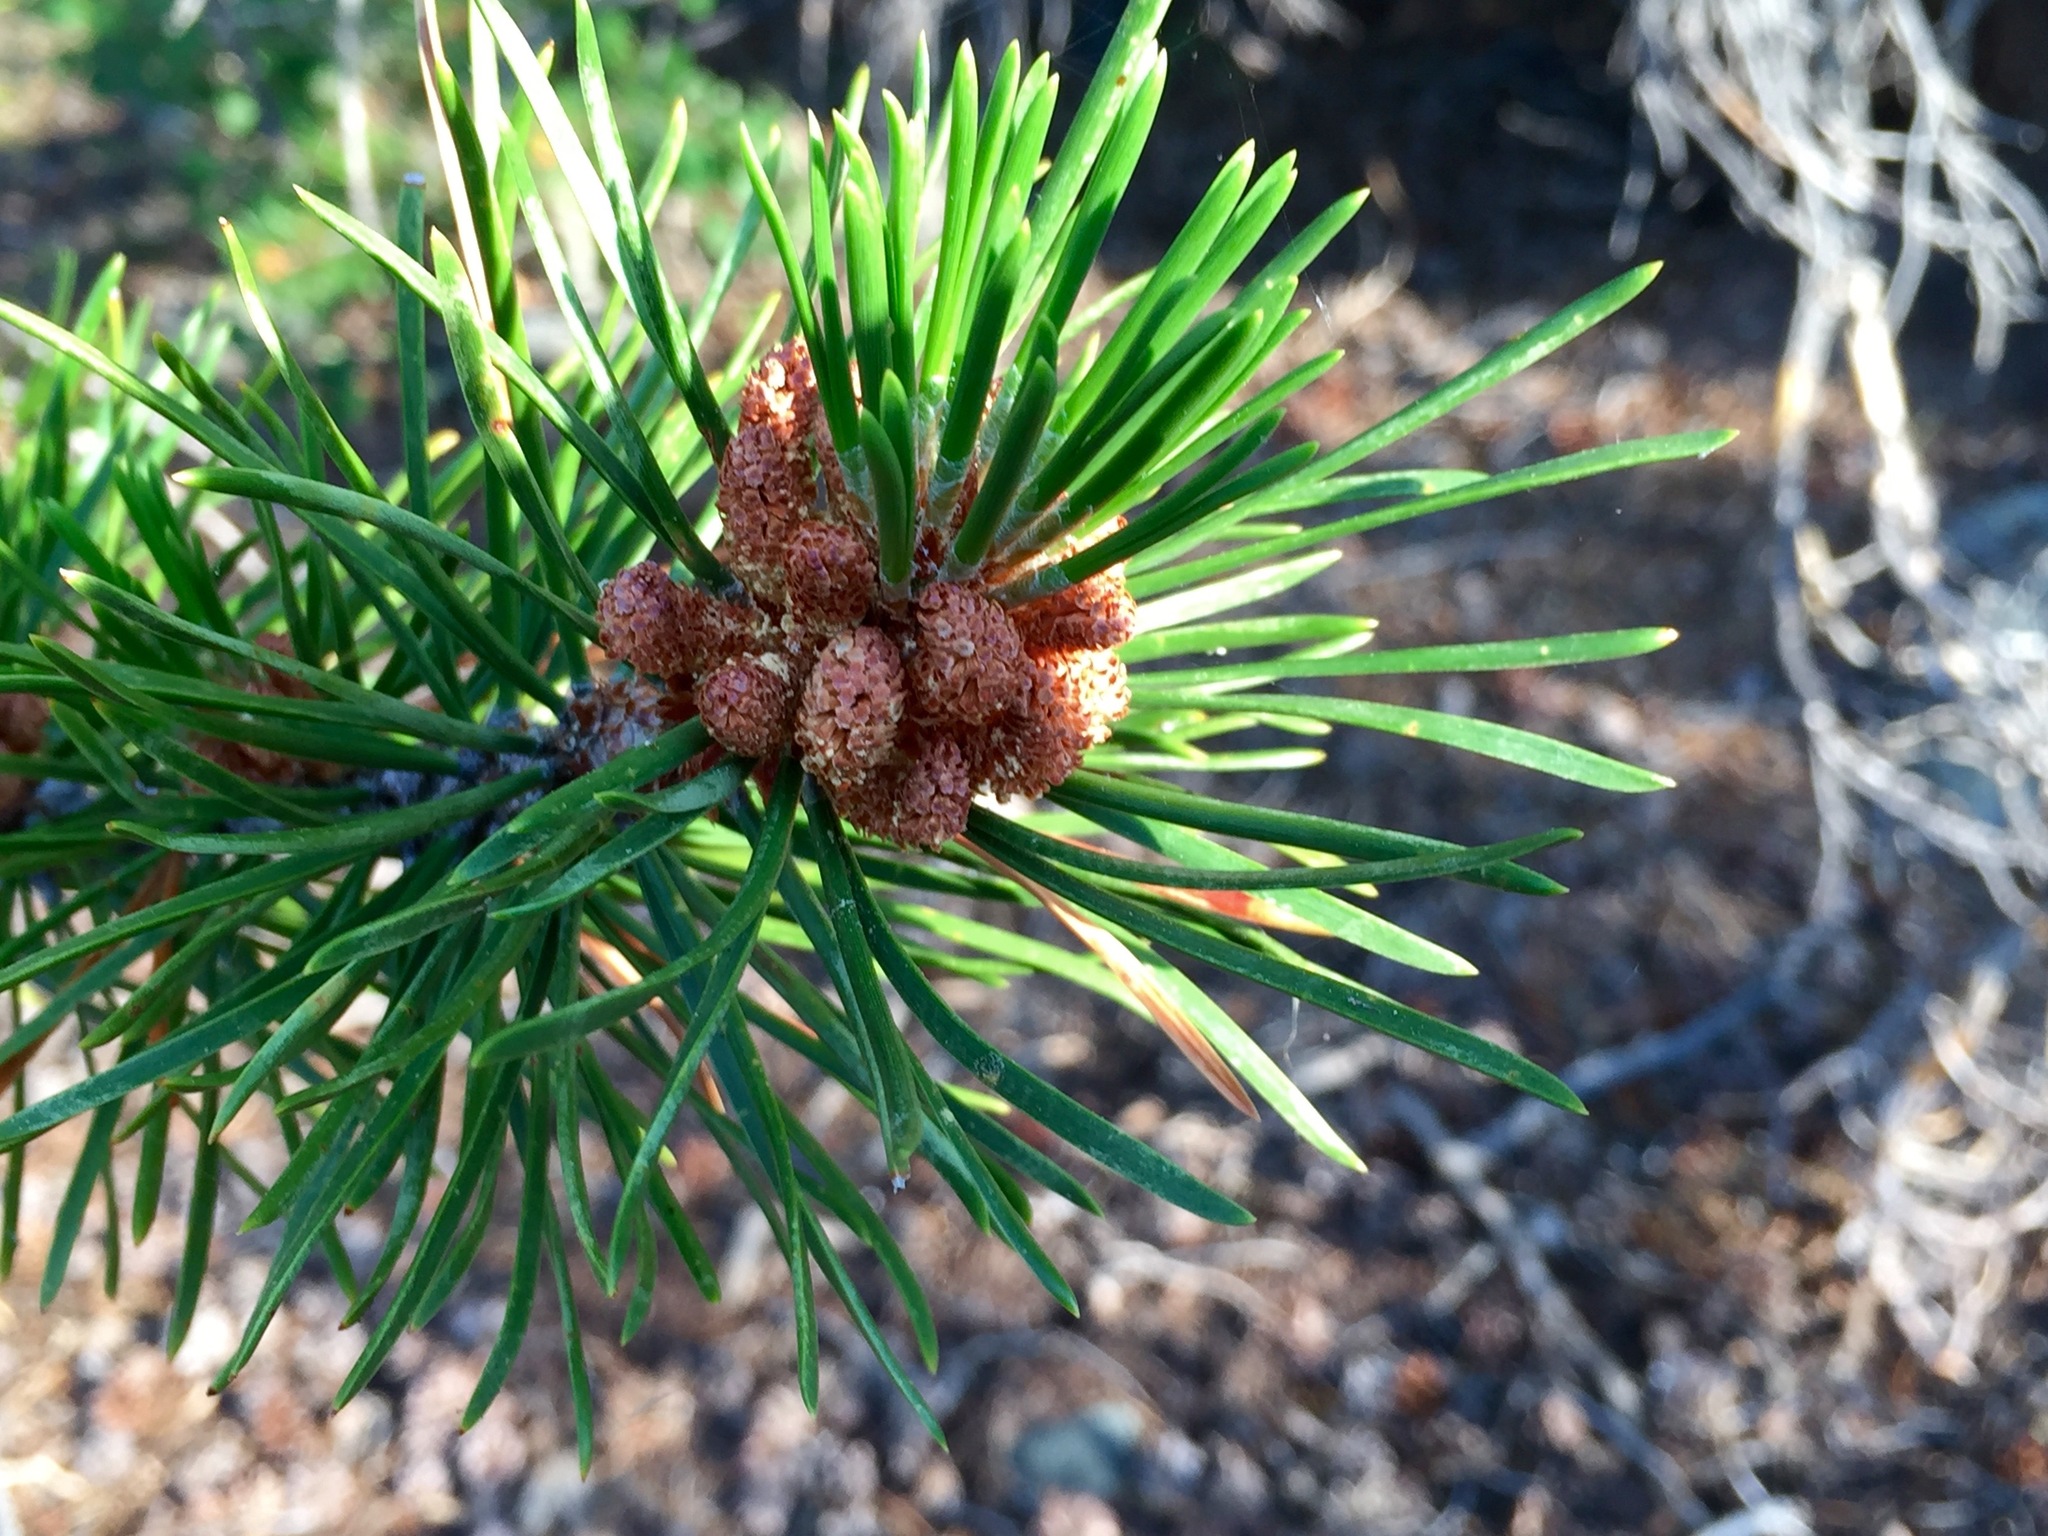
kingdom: Plantae
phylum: Tracheophyta
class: Pinopsida
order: Pinales
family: Pinaceae
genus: Pinus
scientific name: Pinus contorta
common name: Lodgepole pine
